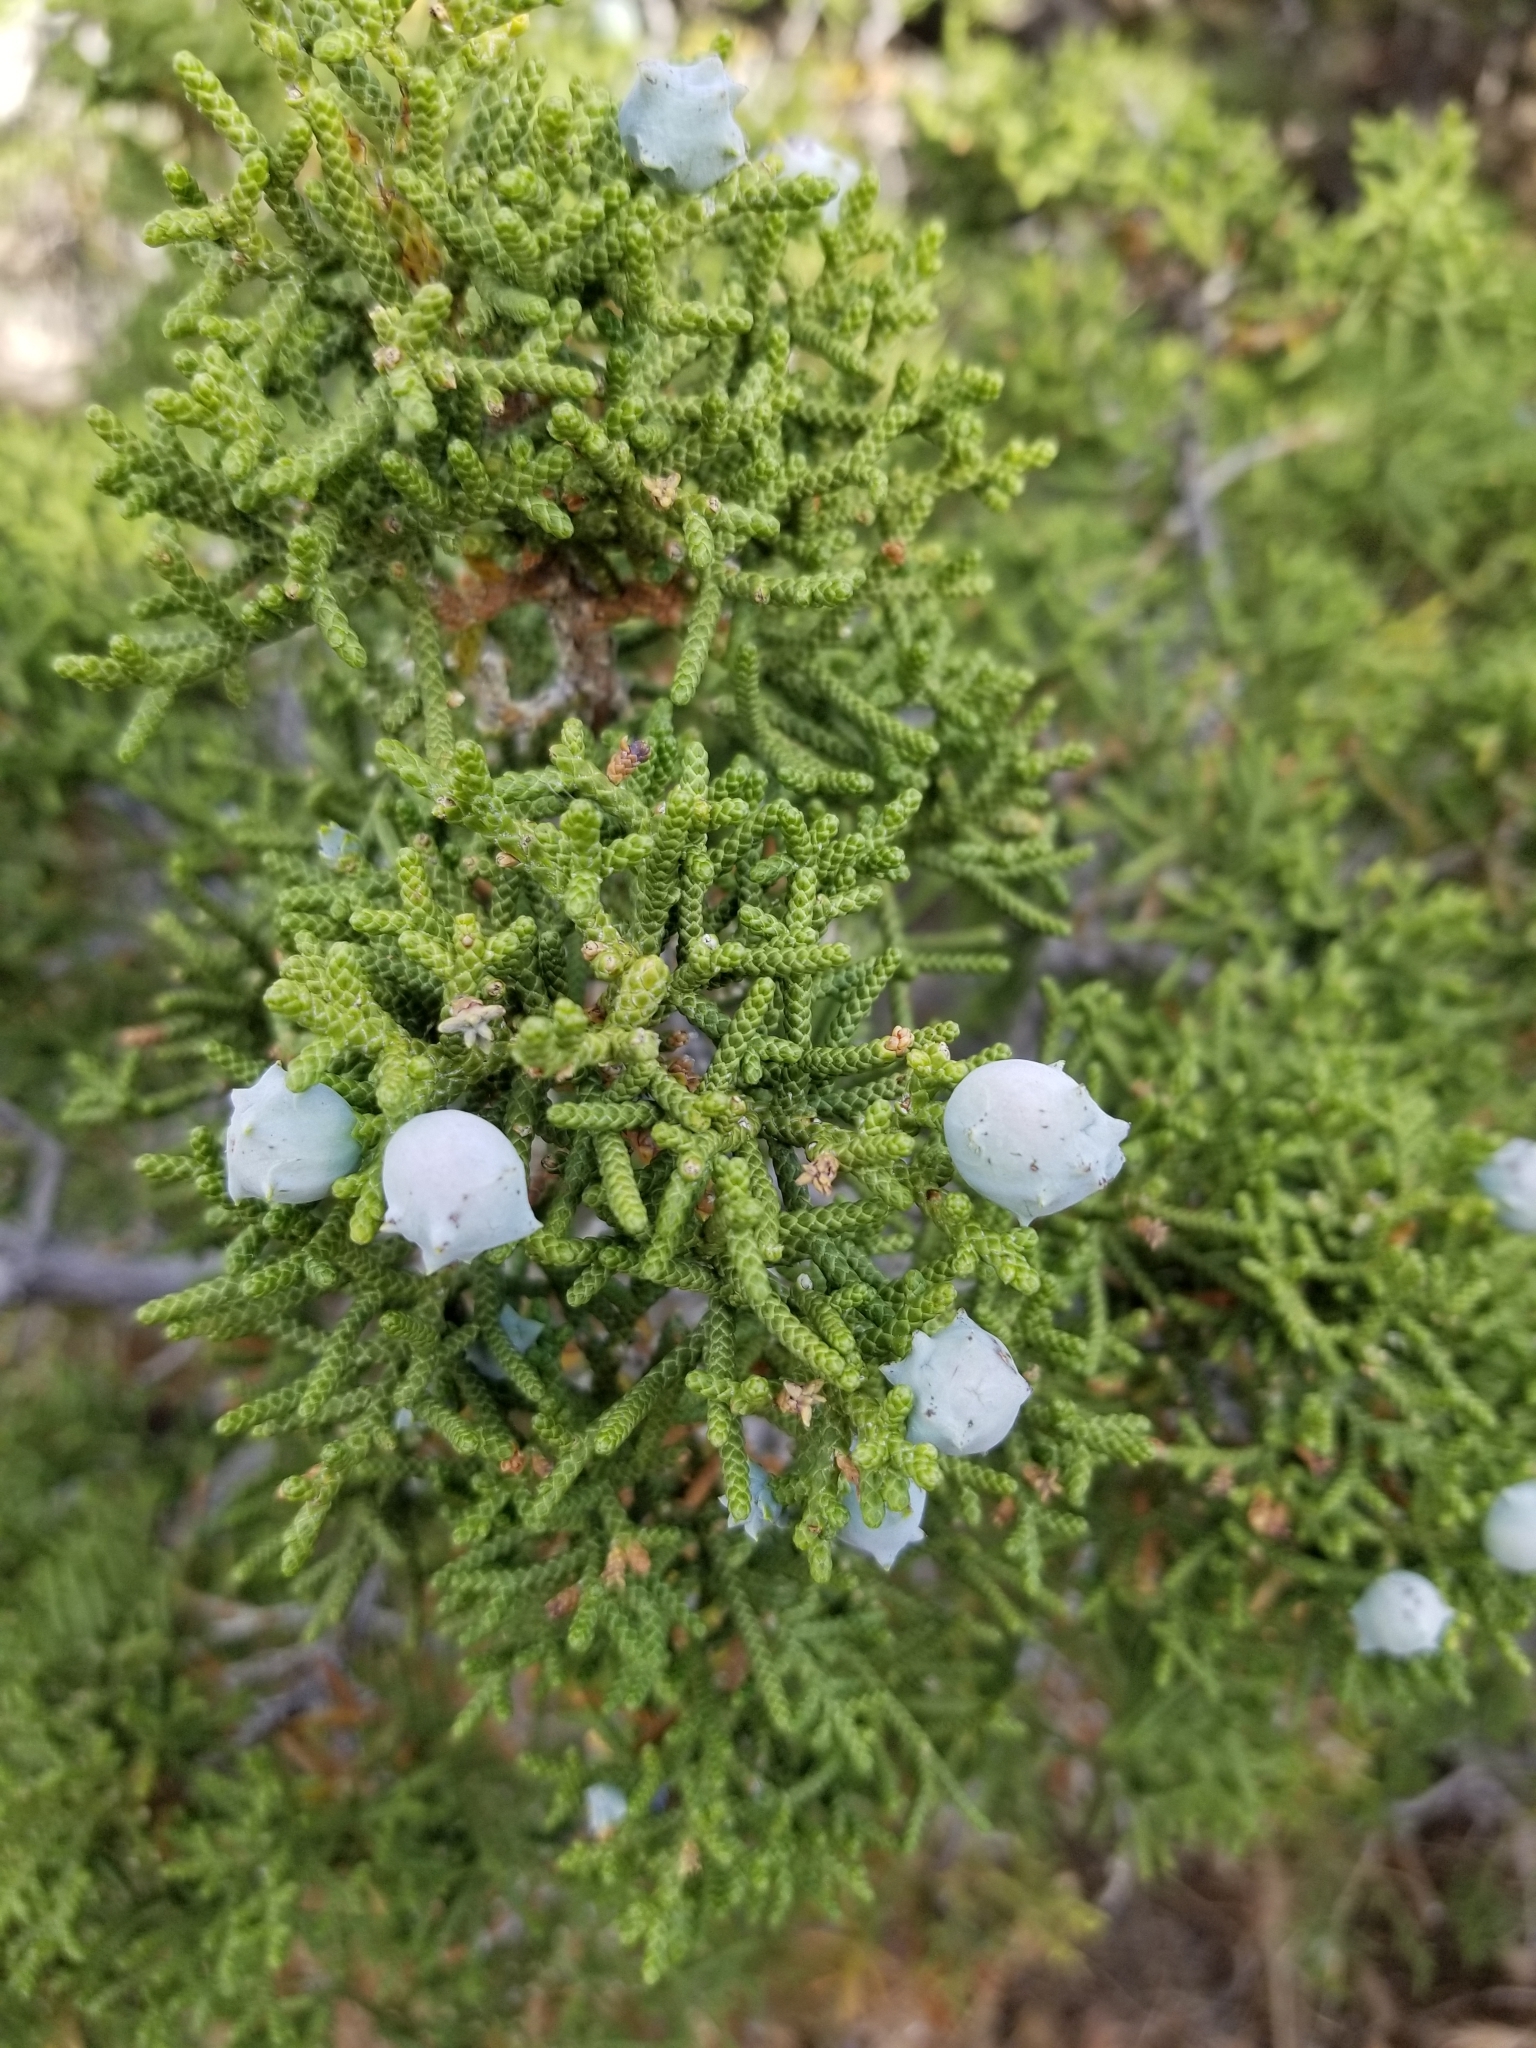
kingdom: Plantae
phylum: Tracheophyta
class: Pinopsida
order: Pinales
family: Cupressaceae
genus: Juniperus
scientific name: Juniperus californica
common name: California juniper
